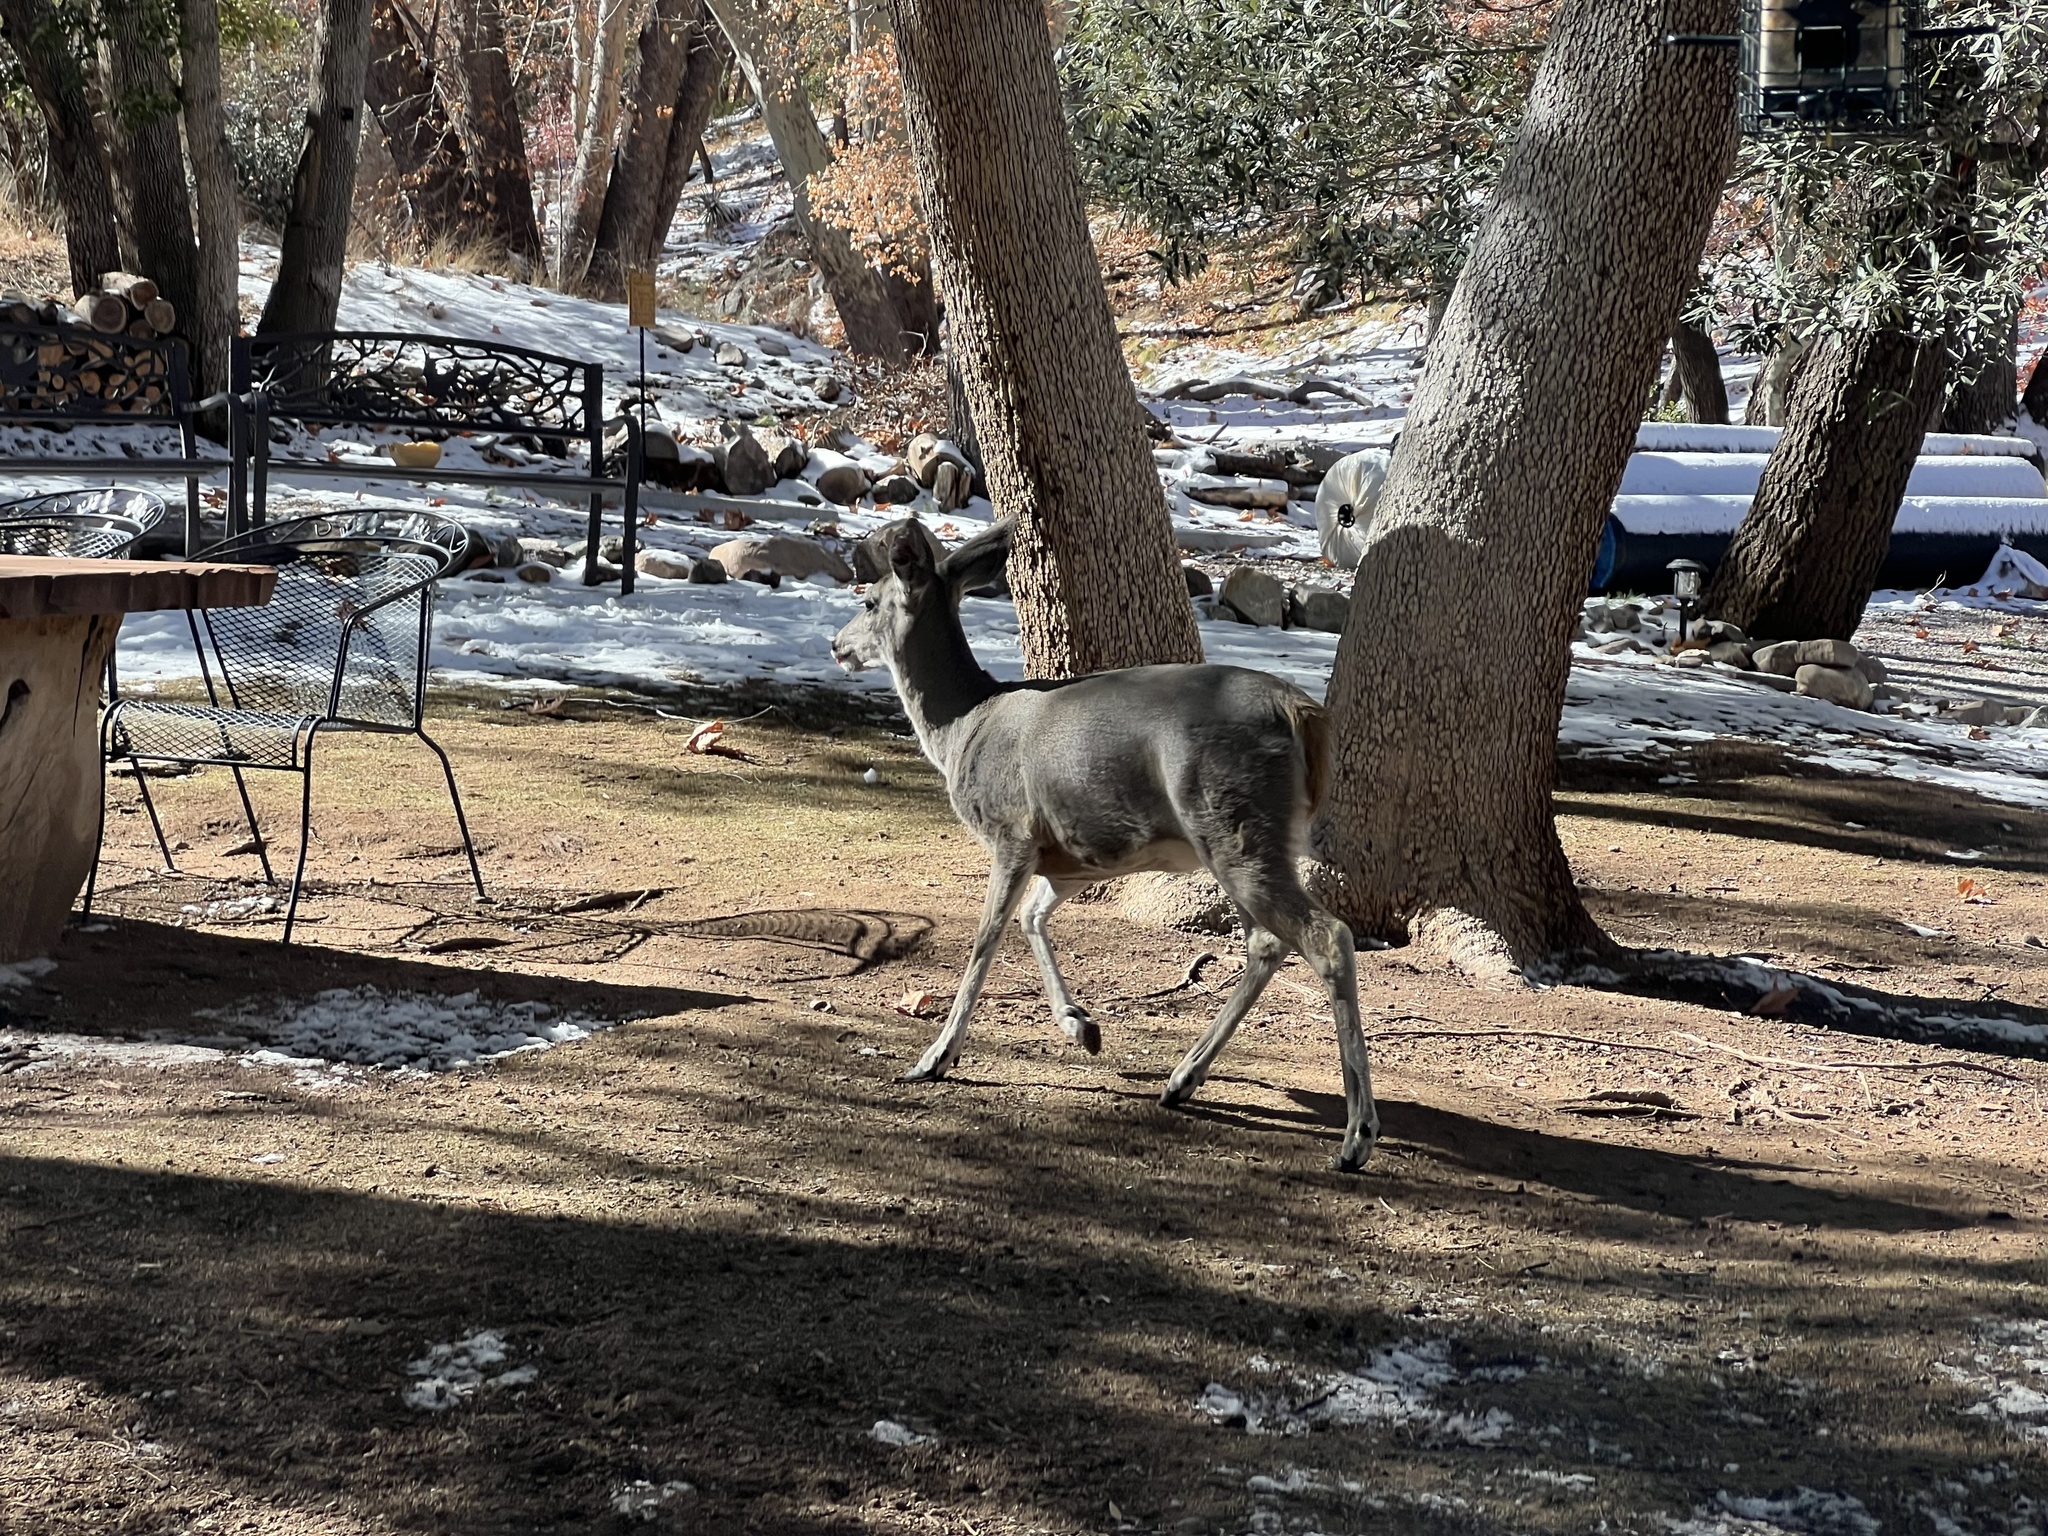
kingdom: Animalia
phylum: Chordata
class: Mammalia
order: Artiodactyla
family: Cervidae
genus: Odocoileus
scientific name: Odocoileus virginianus
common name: White-tailed deer
